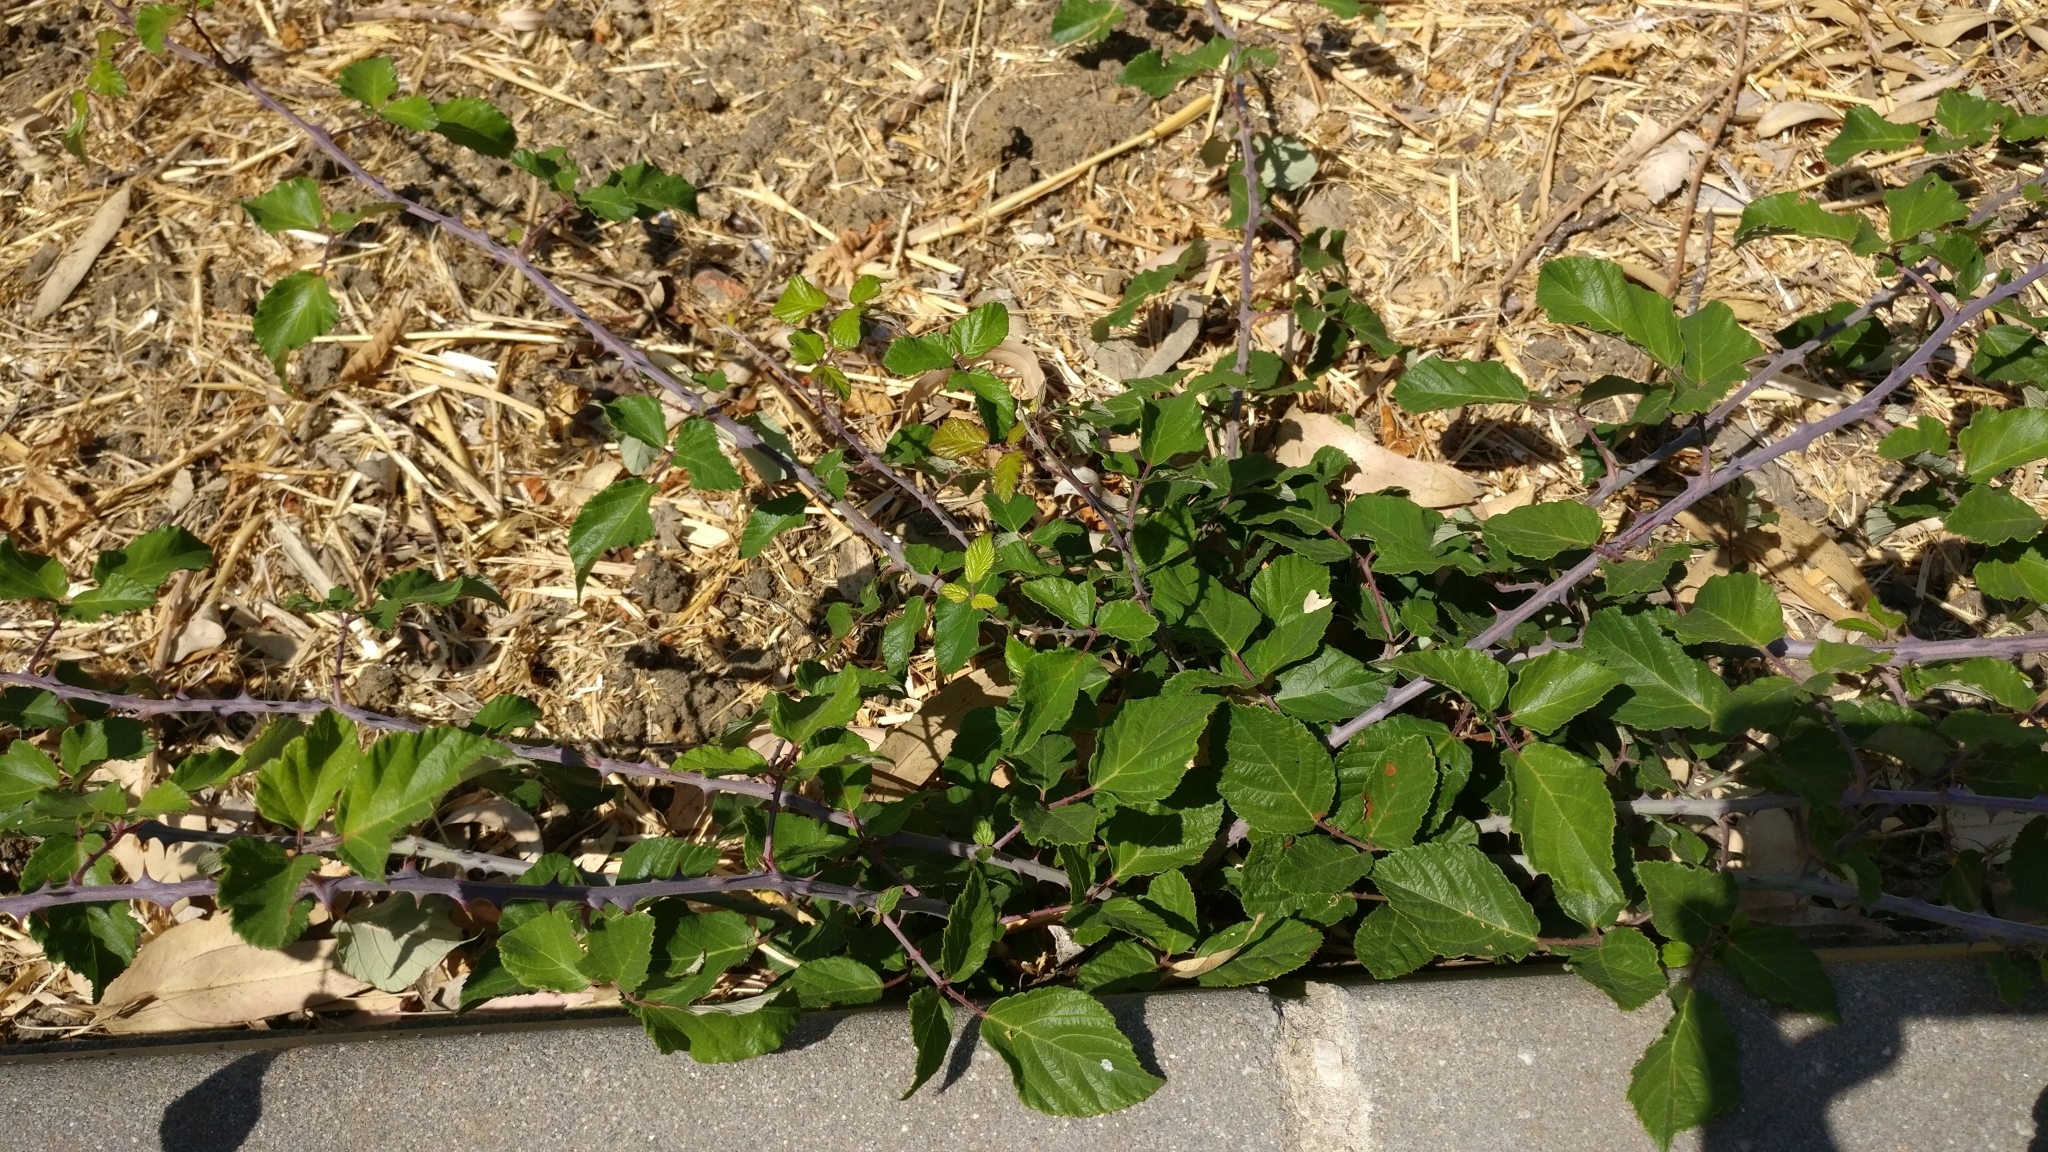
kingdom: Plantae
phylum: Tracheophyta
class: Magnoliopsida
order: Rosales
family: Rosaceae
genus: Rubus
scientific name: Rubus ulmifolius
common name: Elmleaf blackberry
